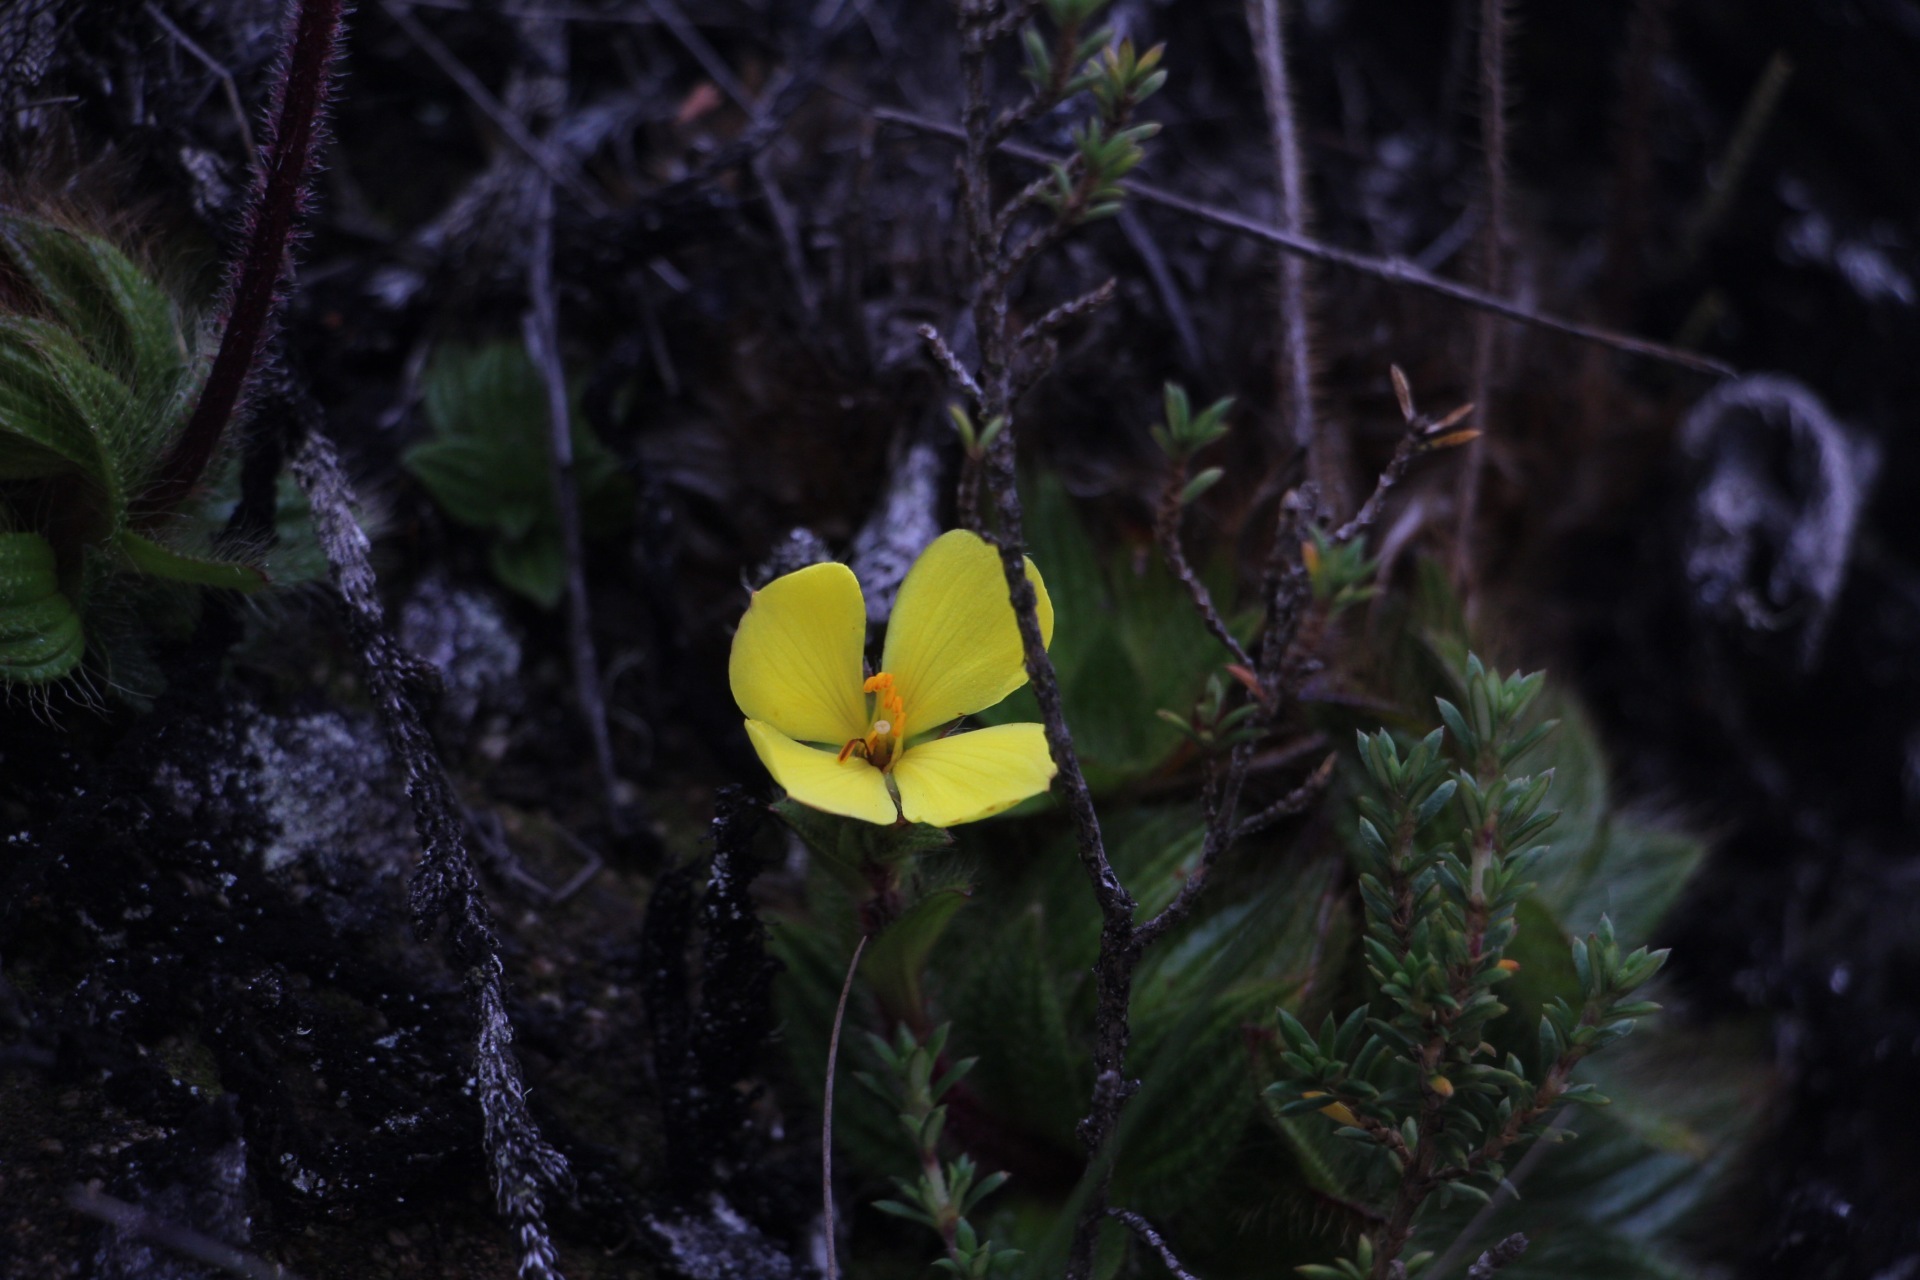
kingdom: Plantae
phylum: Tracheophyta
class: Magnoliopsida
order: Myrtales
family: Melastomataceae
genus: Castratella
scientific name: Castratella piloselloides
